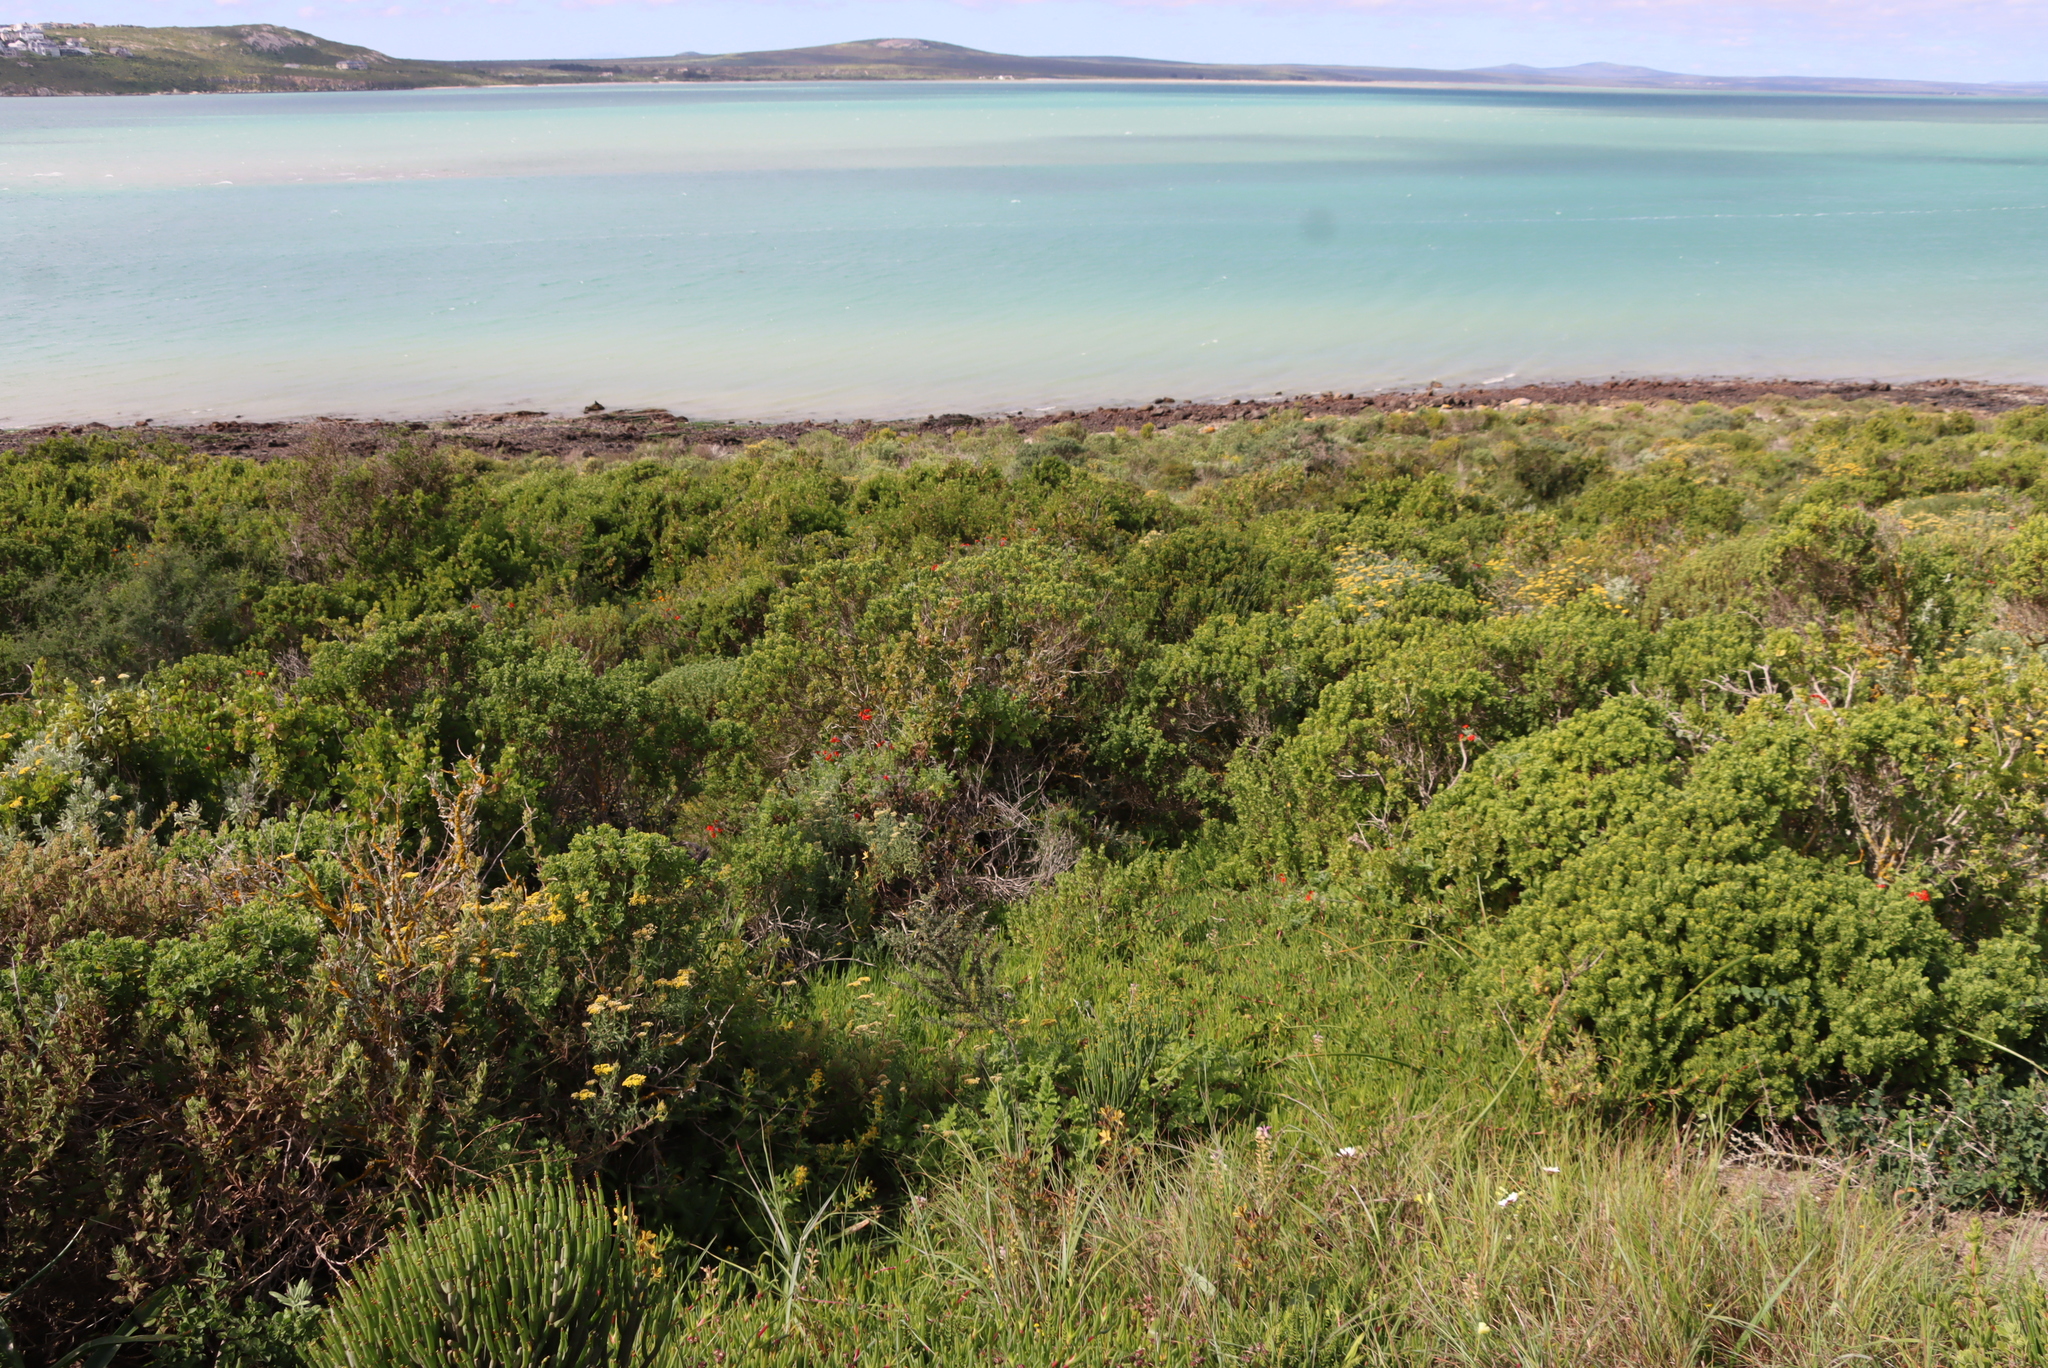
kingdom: Plantae
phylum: Tracheophyta
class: Magnoliopsida
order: Geraniales
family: Geraniaceae
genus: Pelargonium
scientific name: Pelargonium fulgidum
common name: Celandine-leaf pelargonium
